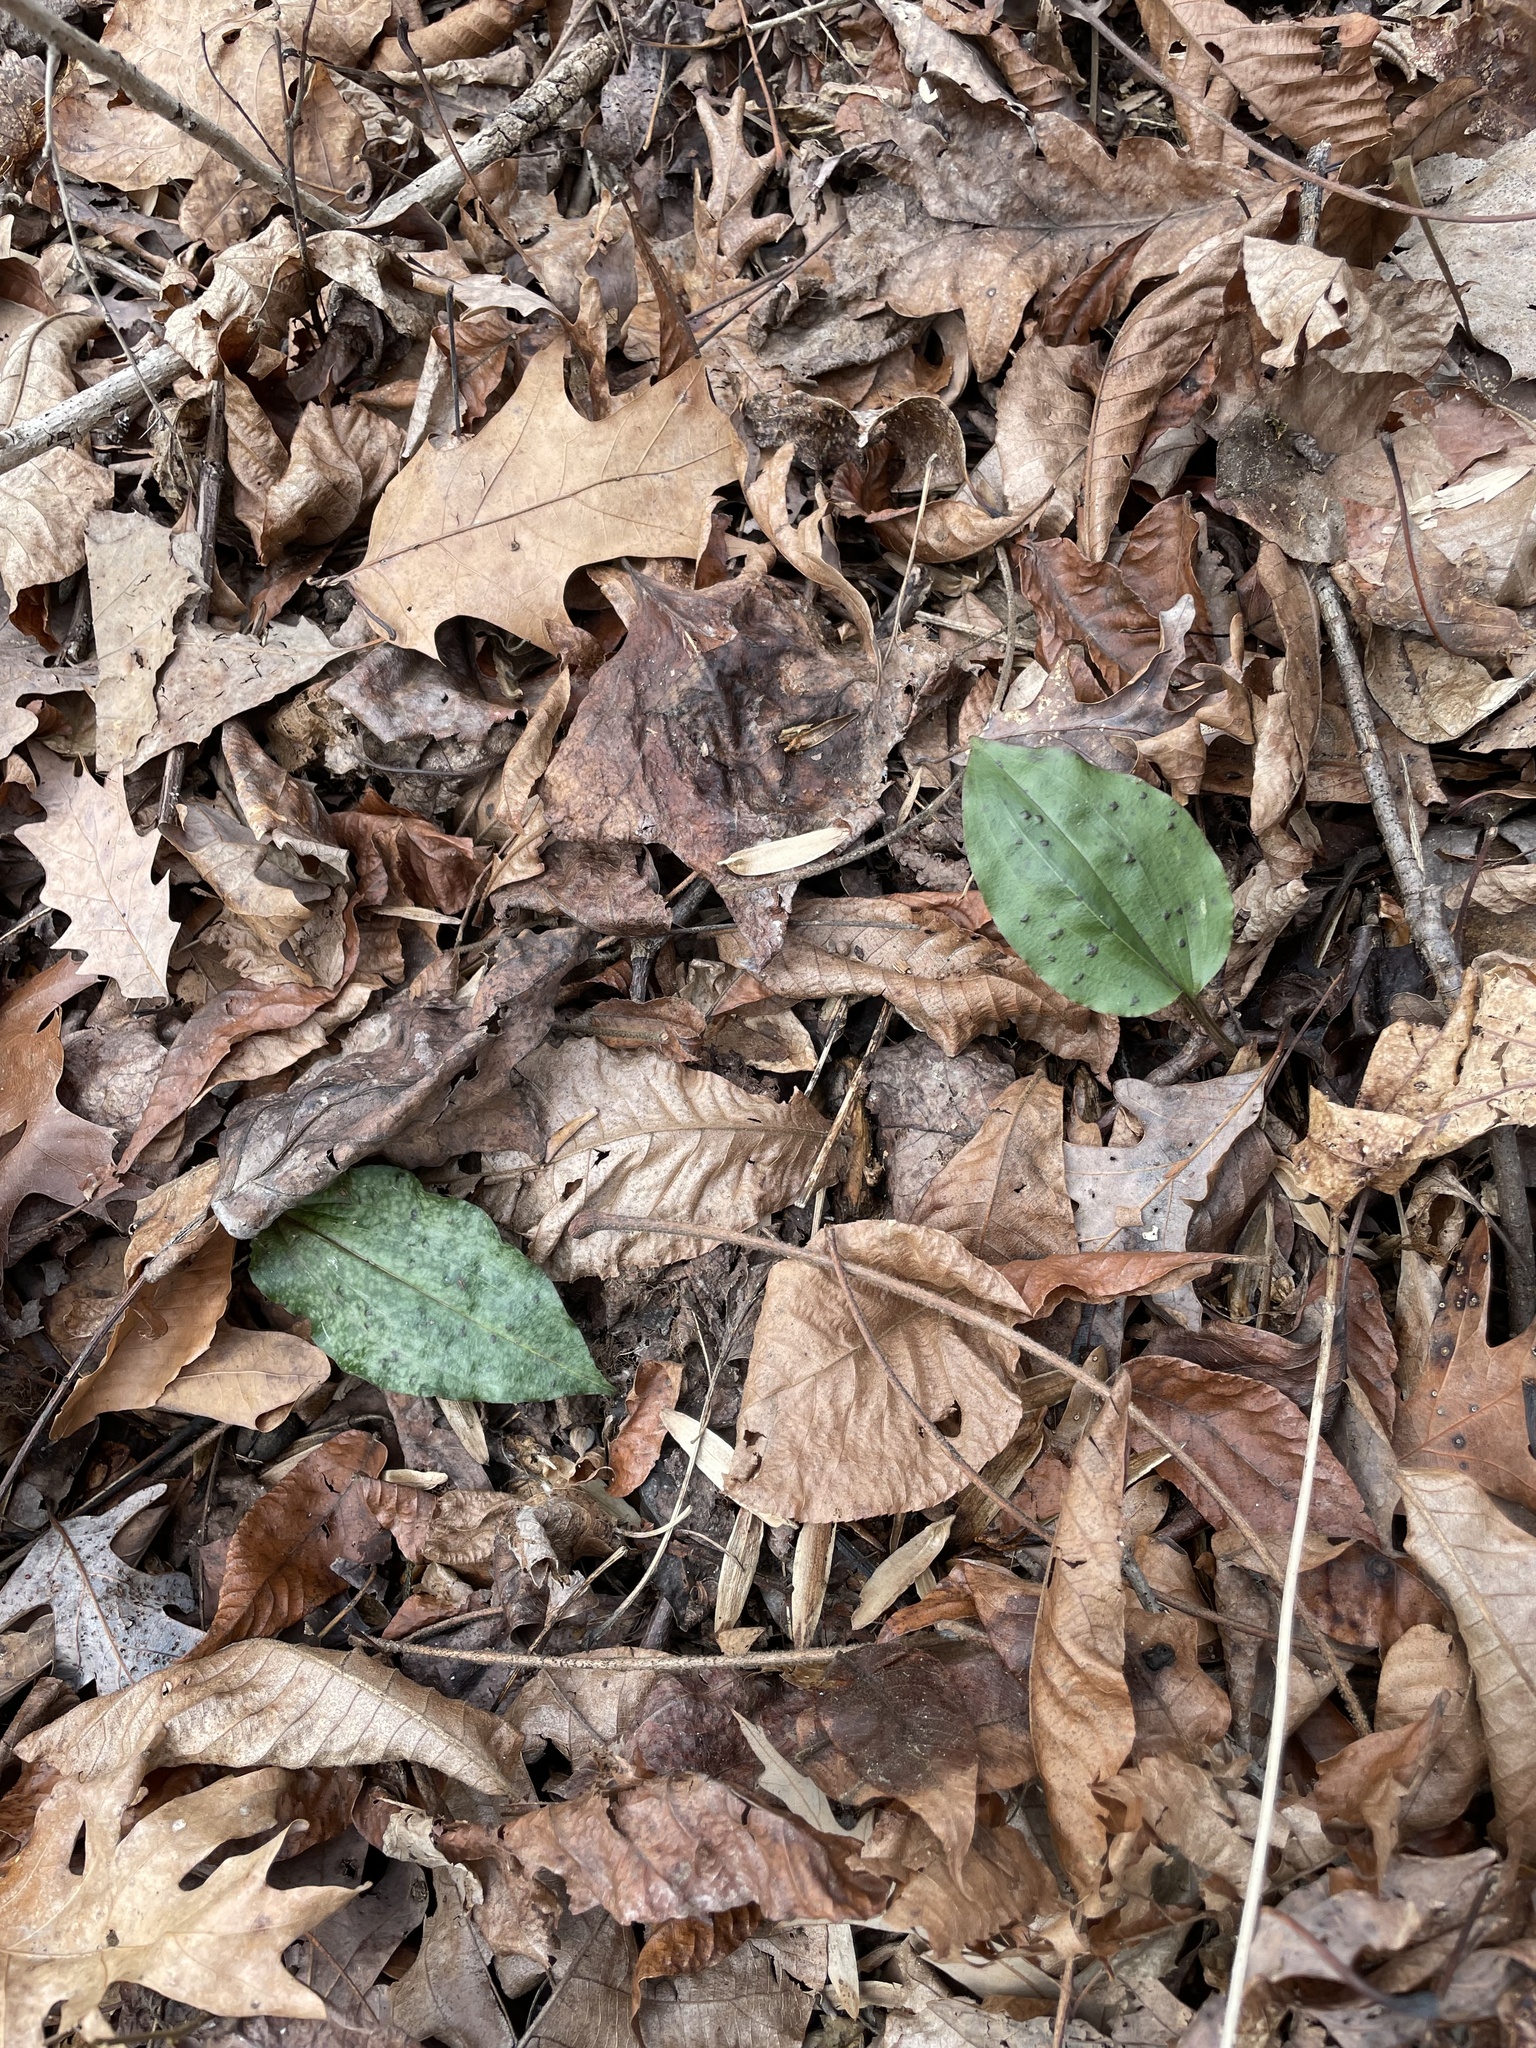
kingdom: Plantae
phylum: Tracheophyta
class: Liliopsida
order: Asparagales
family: Orchidaceae
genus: Tipularia
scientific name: Tipularia discolor
